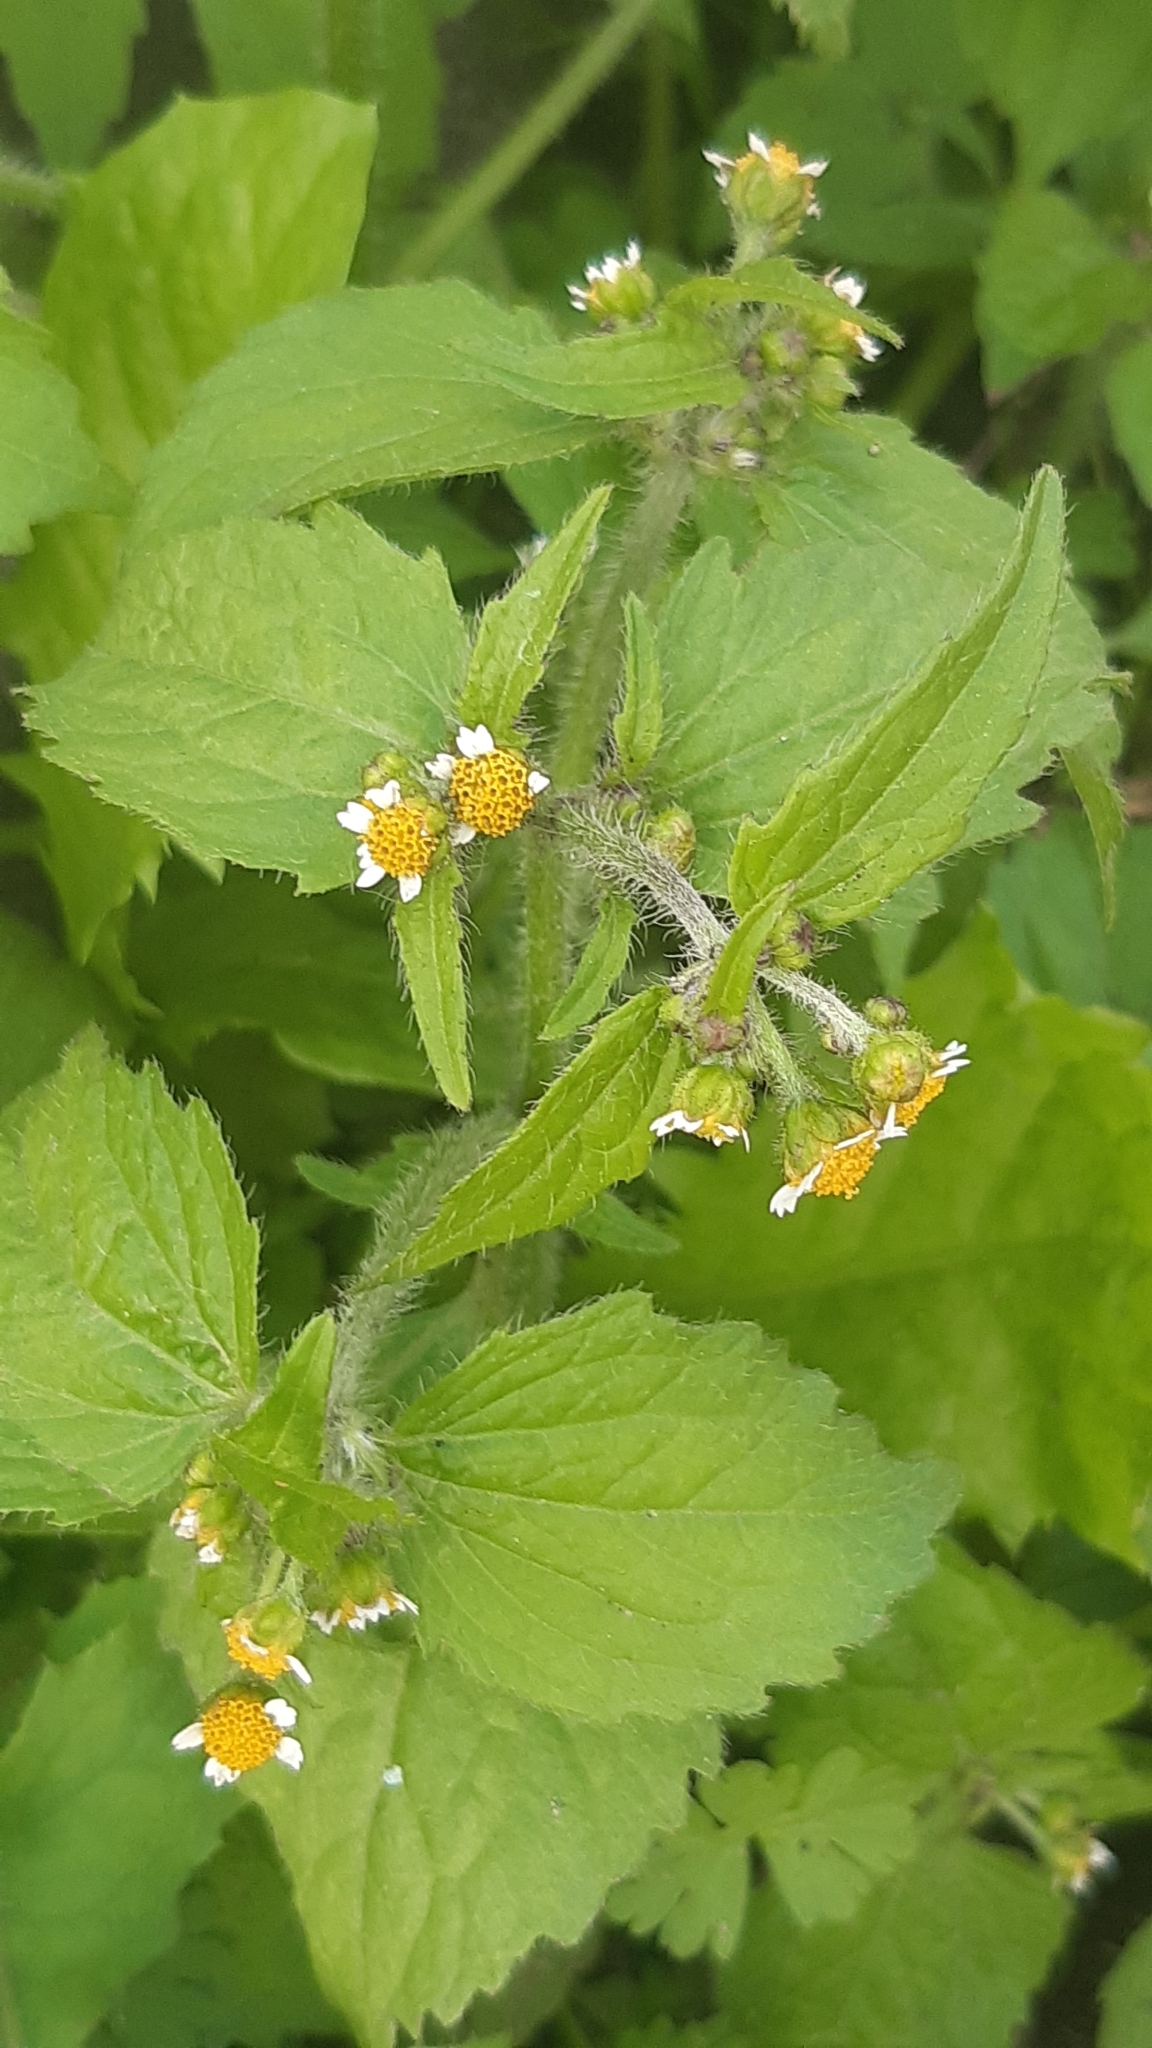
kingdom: Plantae
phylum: Tracheophyta
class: Magnoliopsida
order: Asterales
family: Asteraceae
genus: Galinsoga
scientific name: Galinsoga quadriradiata
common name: Shaggy soldier
